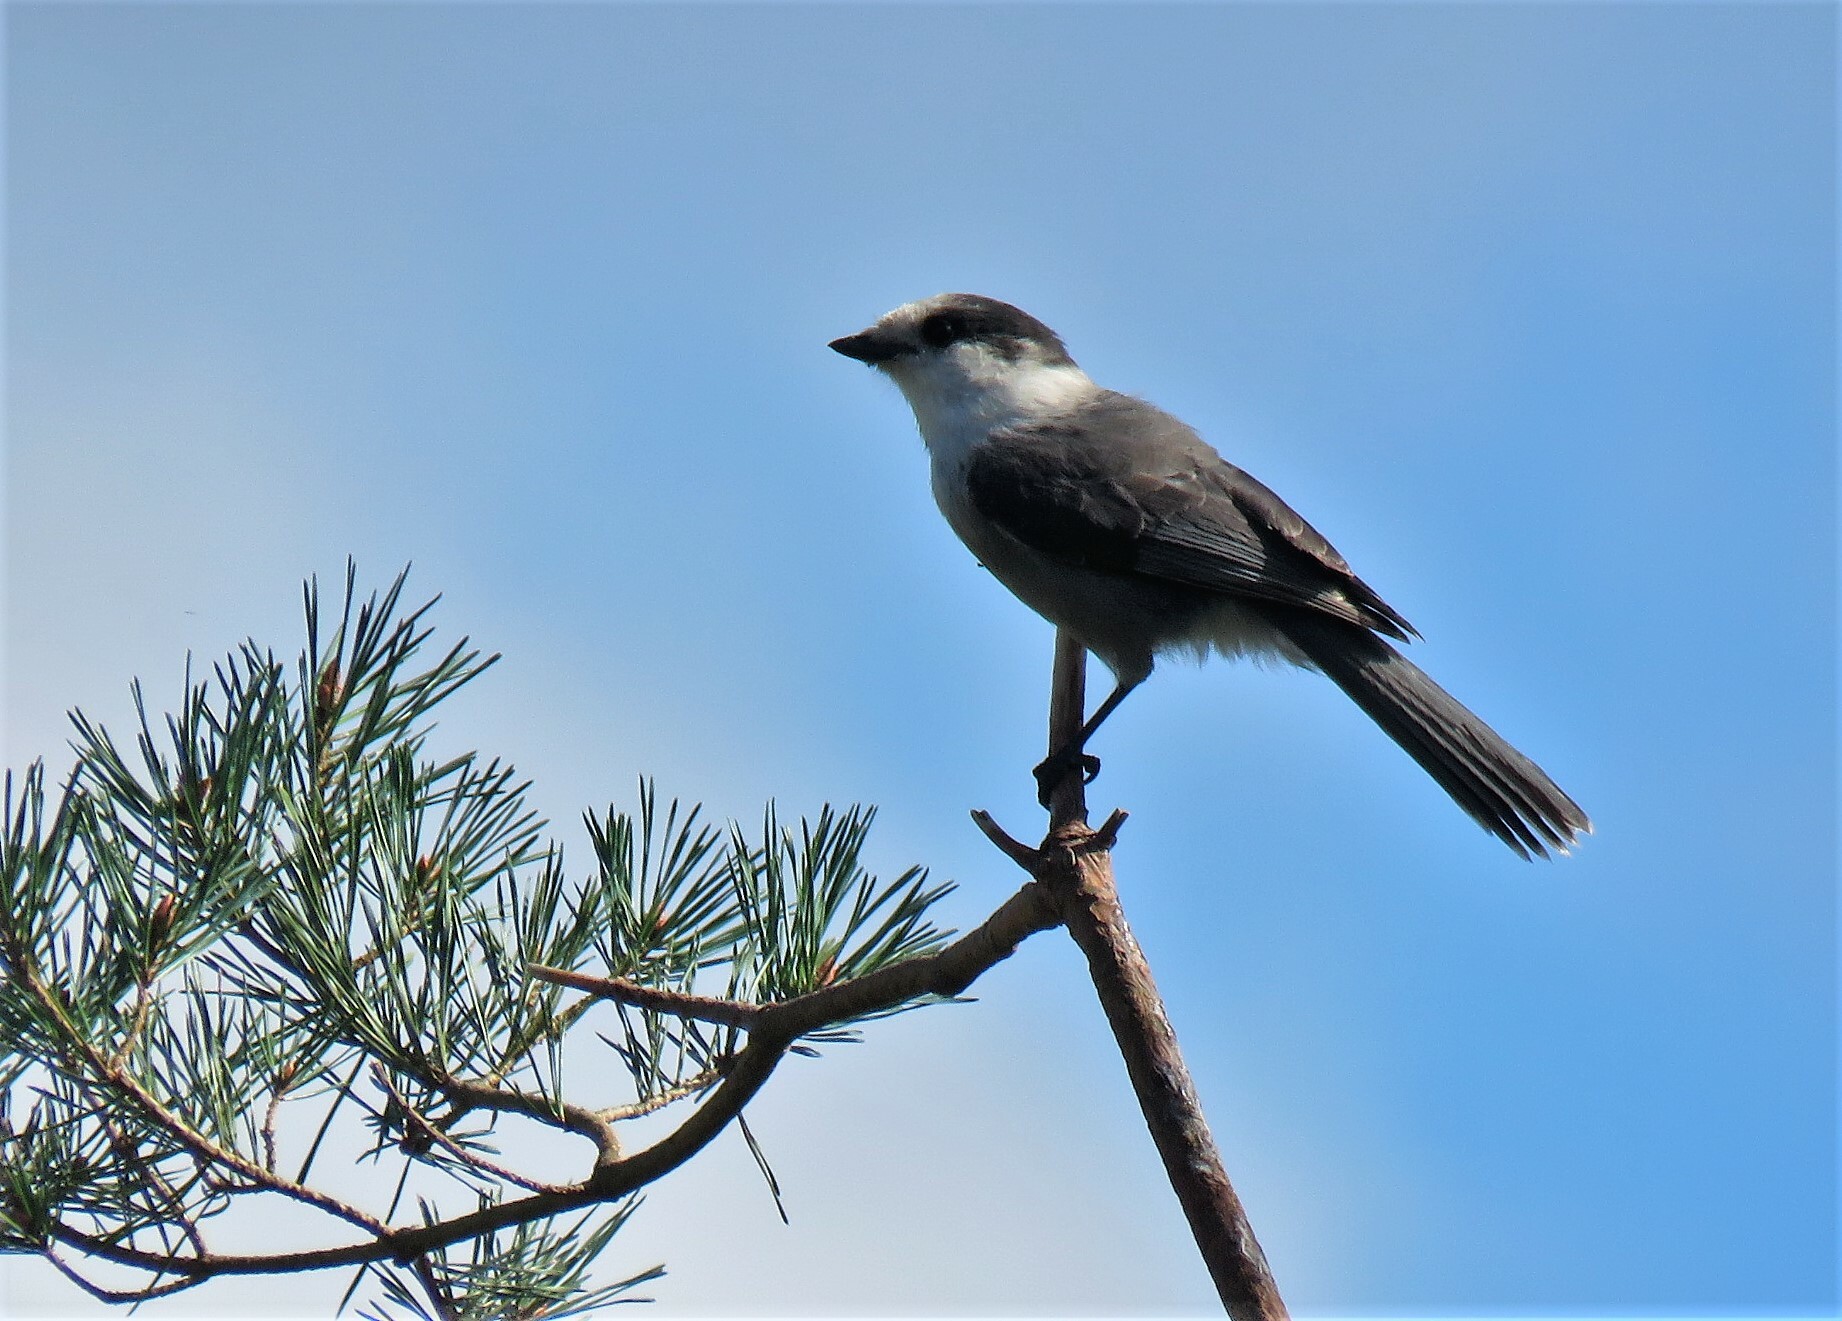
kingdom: Animalia
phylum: Chordata
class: Aves
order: Passeriformes
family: Corvidae
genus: Perisoreus
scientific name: Perisoreus canadensis
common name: Gray jay
